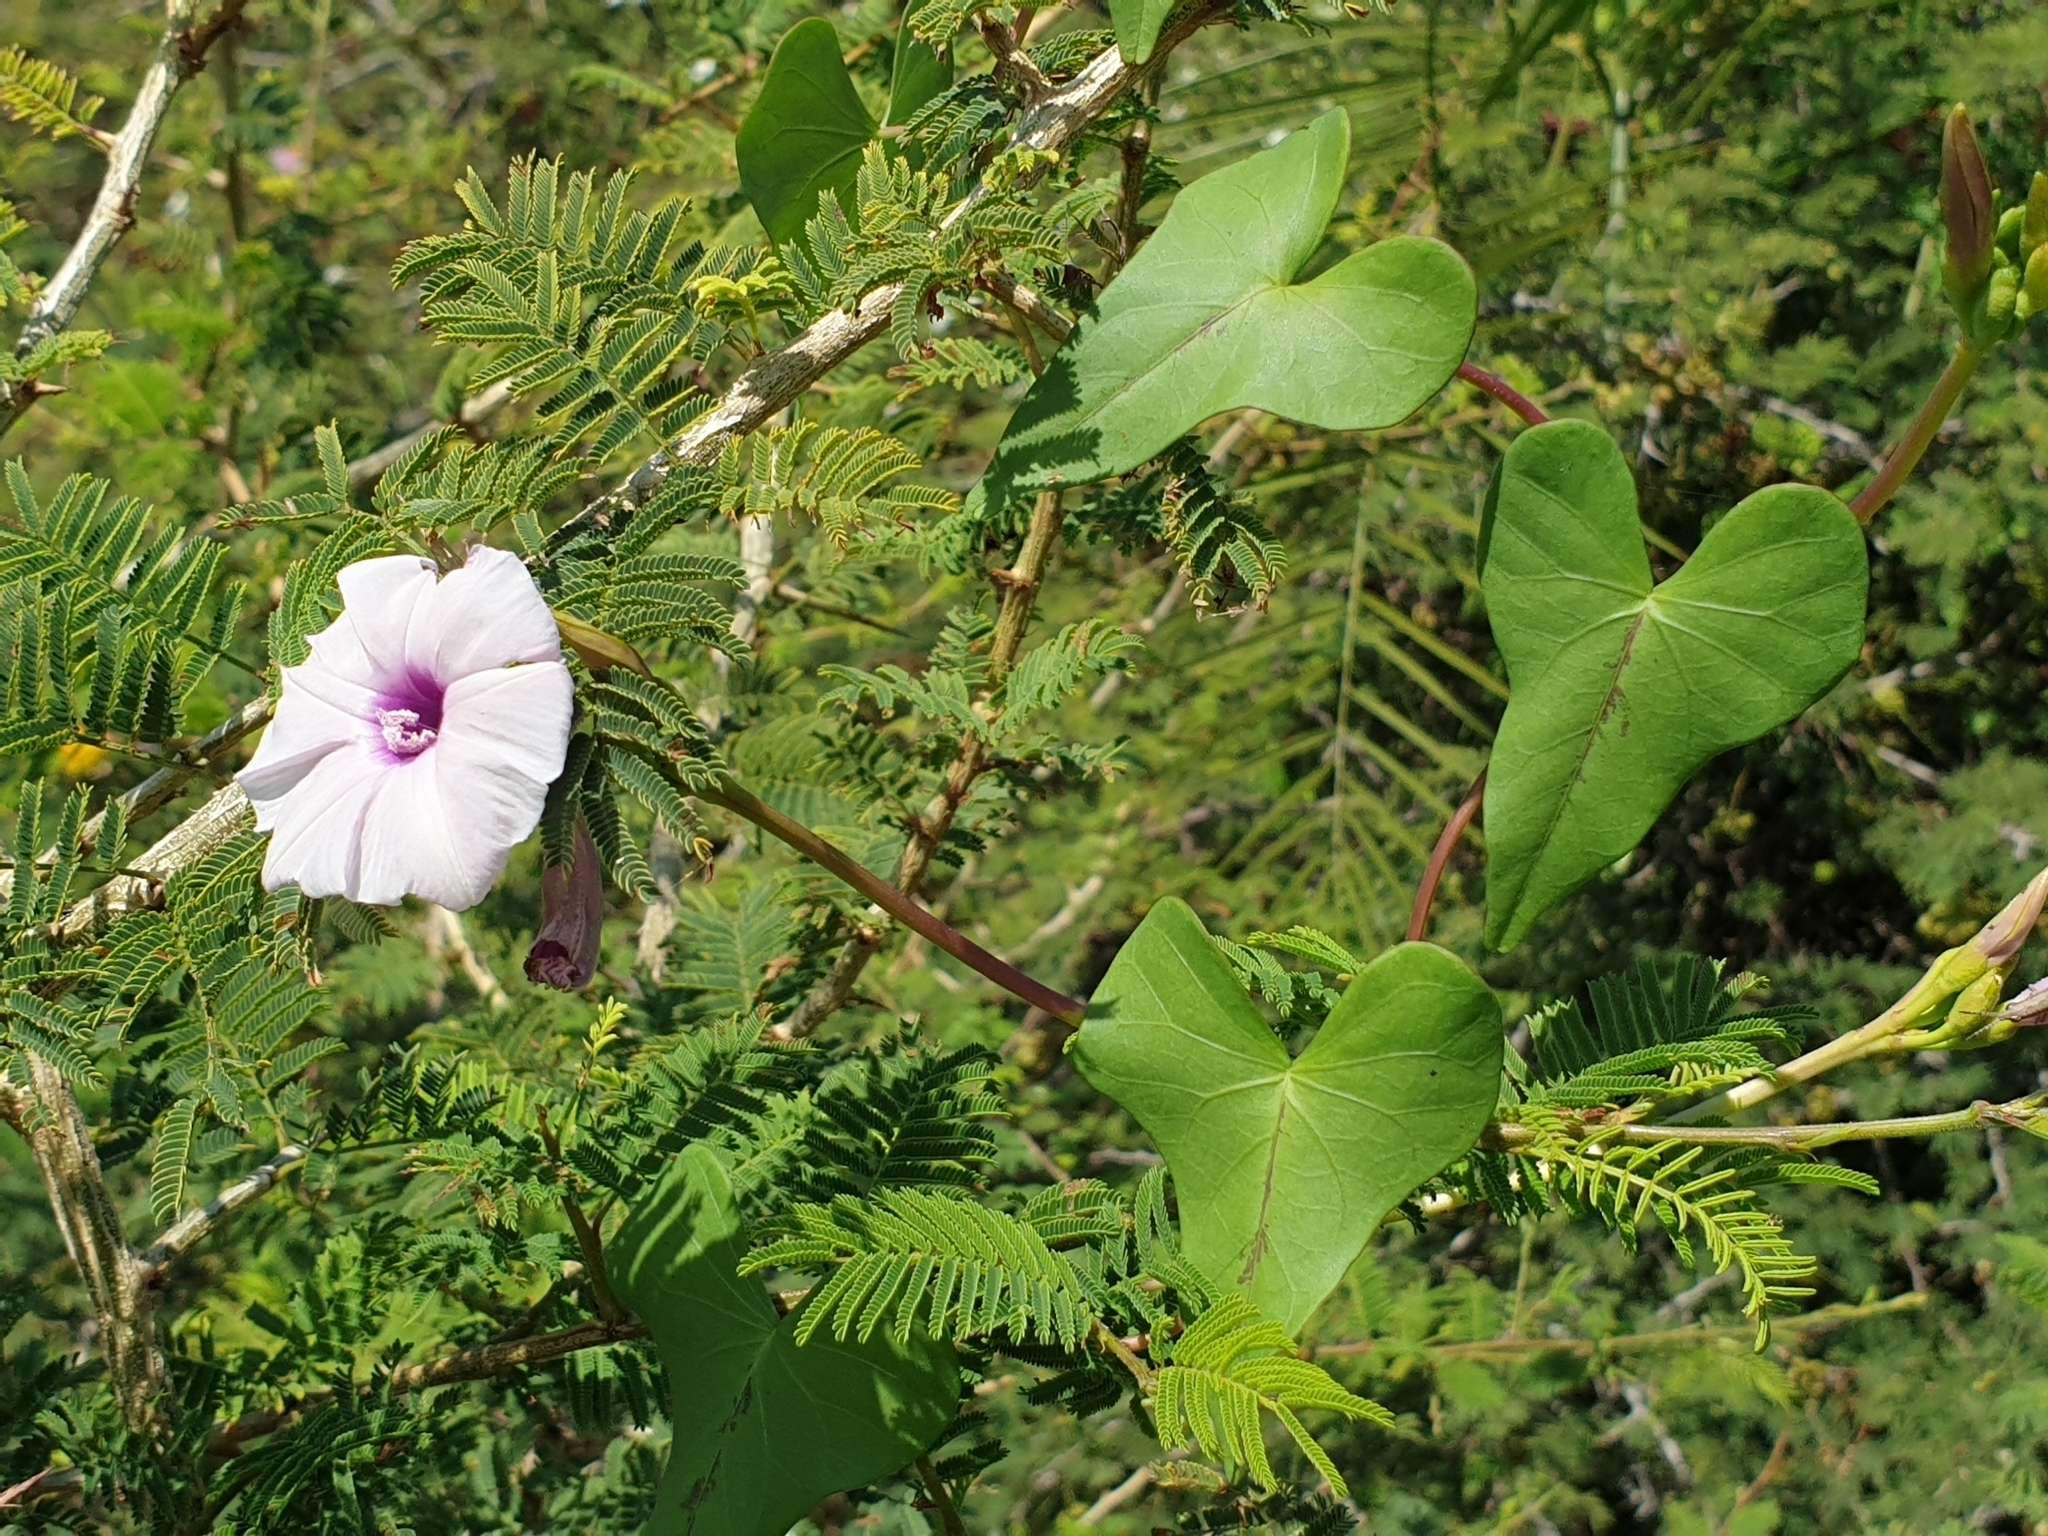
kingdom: Plantae
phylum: Tracheophyta
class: Magnoliopsida
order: Solanales
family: Convolvulaceae
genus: Ipomoea
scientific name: Ipomoea sagittifolia
